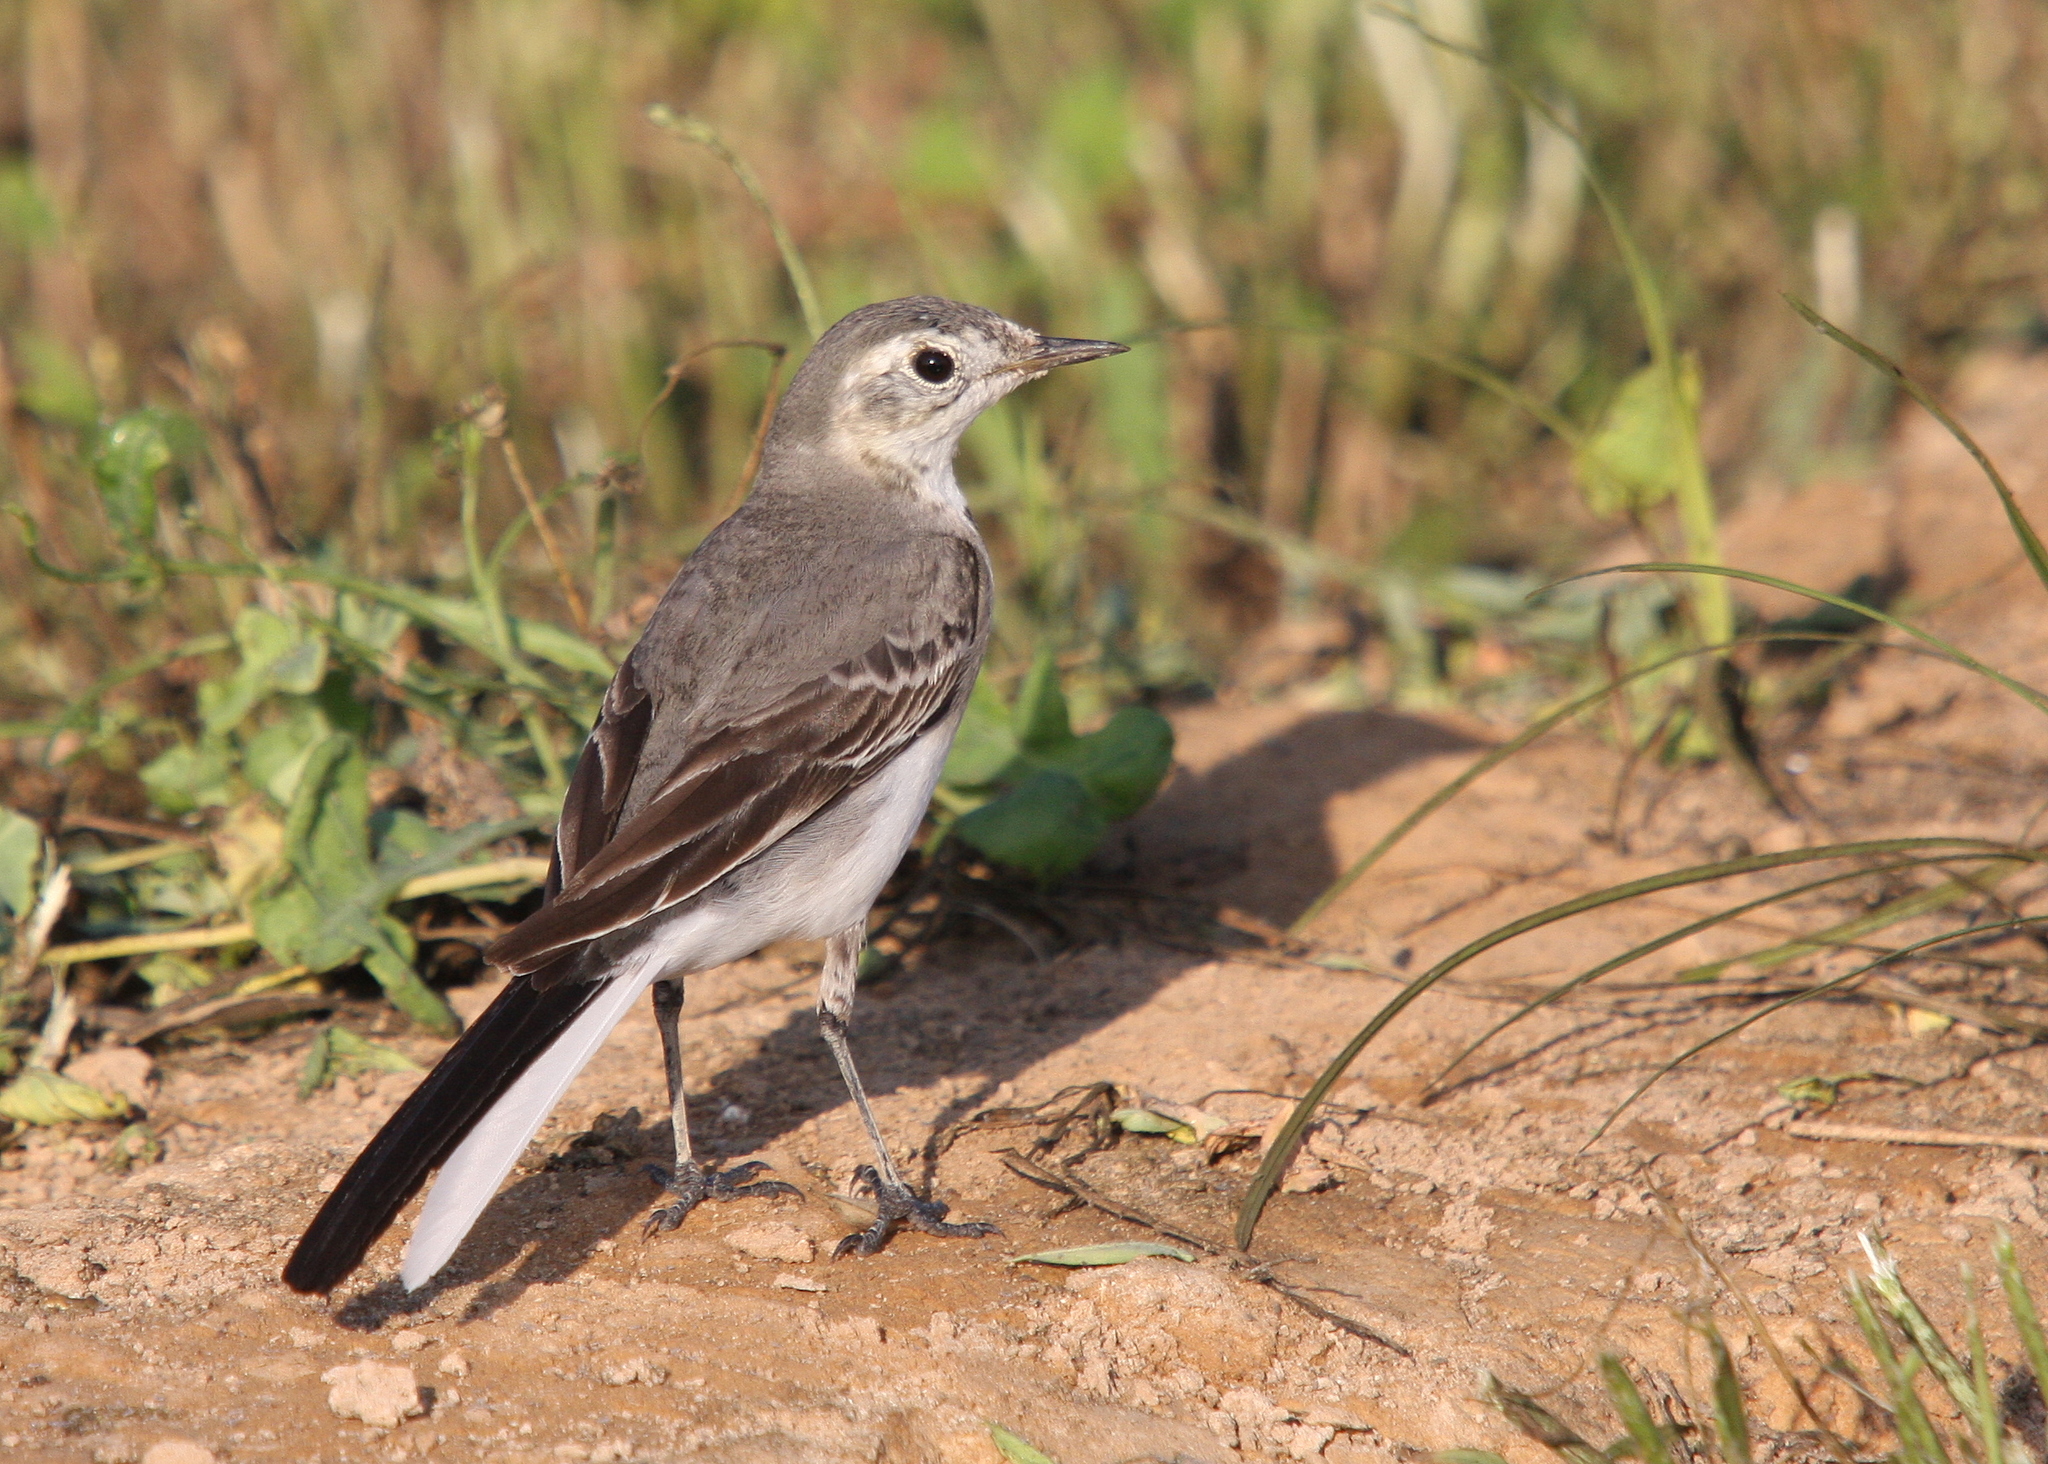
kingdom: Animalia
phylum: Chordata
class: Aves
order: Passeriformes
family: Motacillidae
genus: Motacilla
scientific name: Motacilla alba
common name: White wagtail
